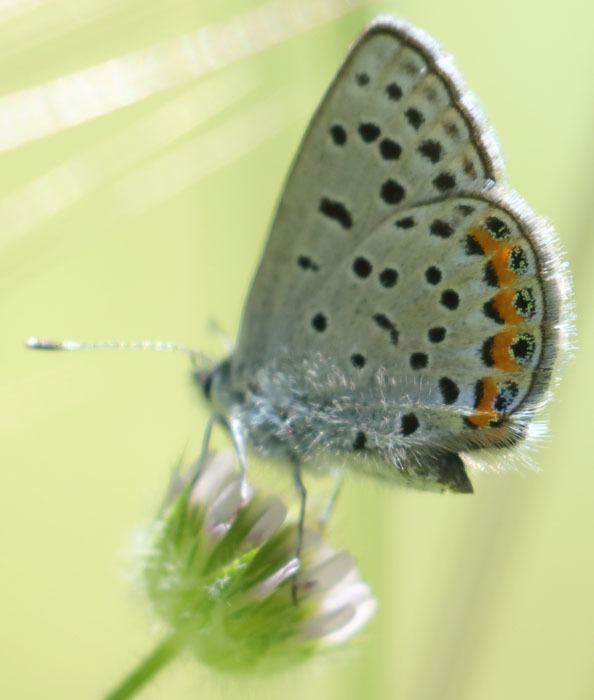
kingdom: Animalia
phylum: Arthropoda
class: Insecta
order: Lepidoptera
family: Lycaenidae
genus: Icaricia
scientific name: Icaricia acmon
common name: Acmon blue
